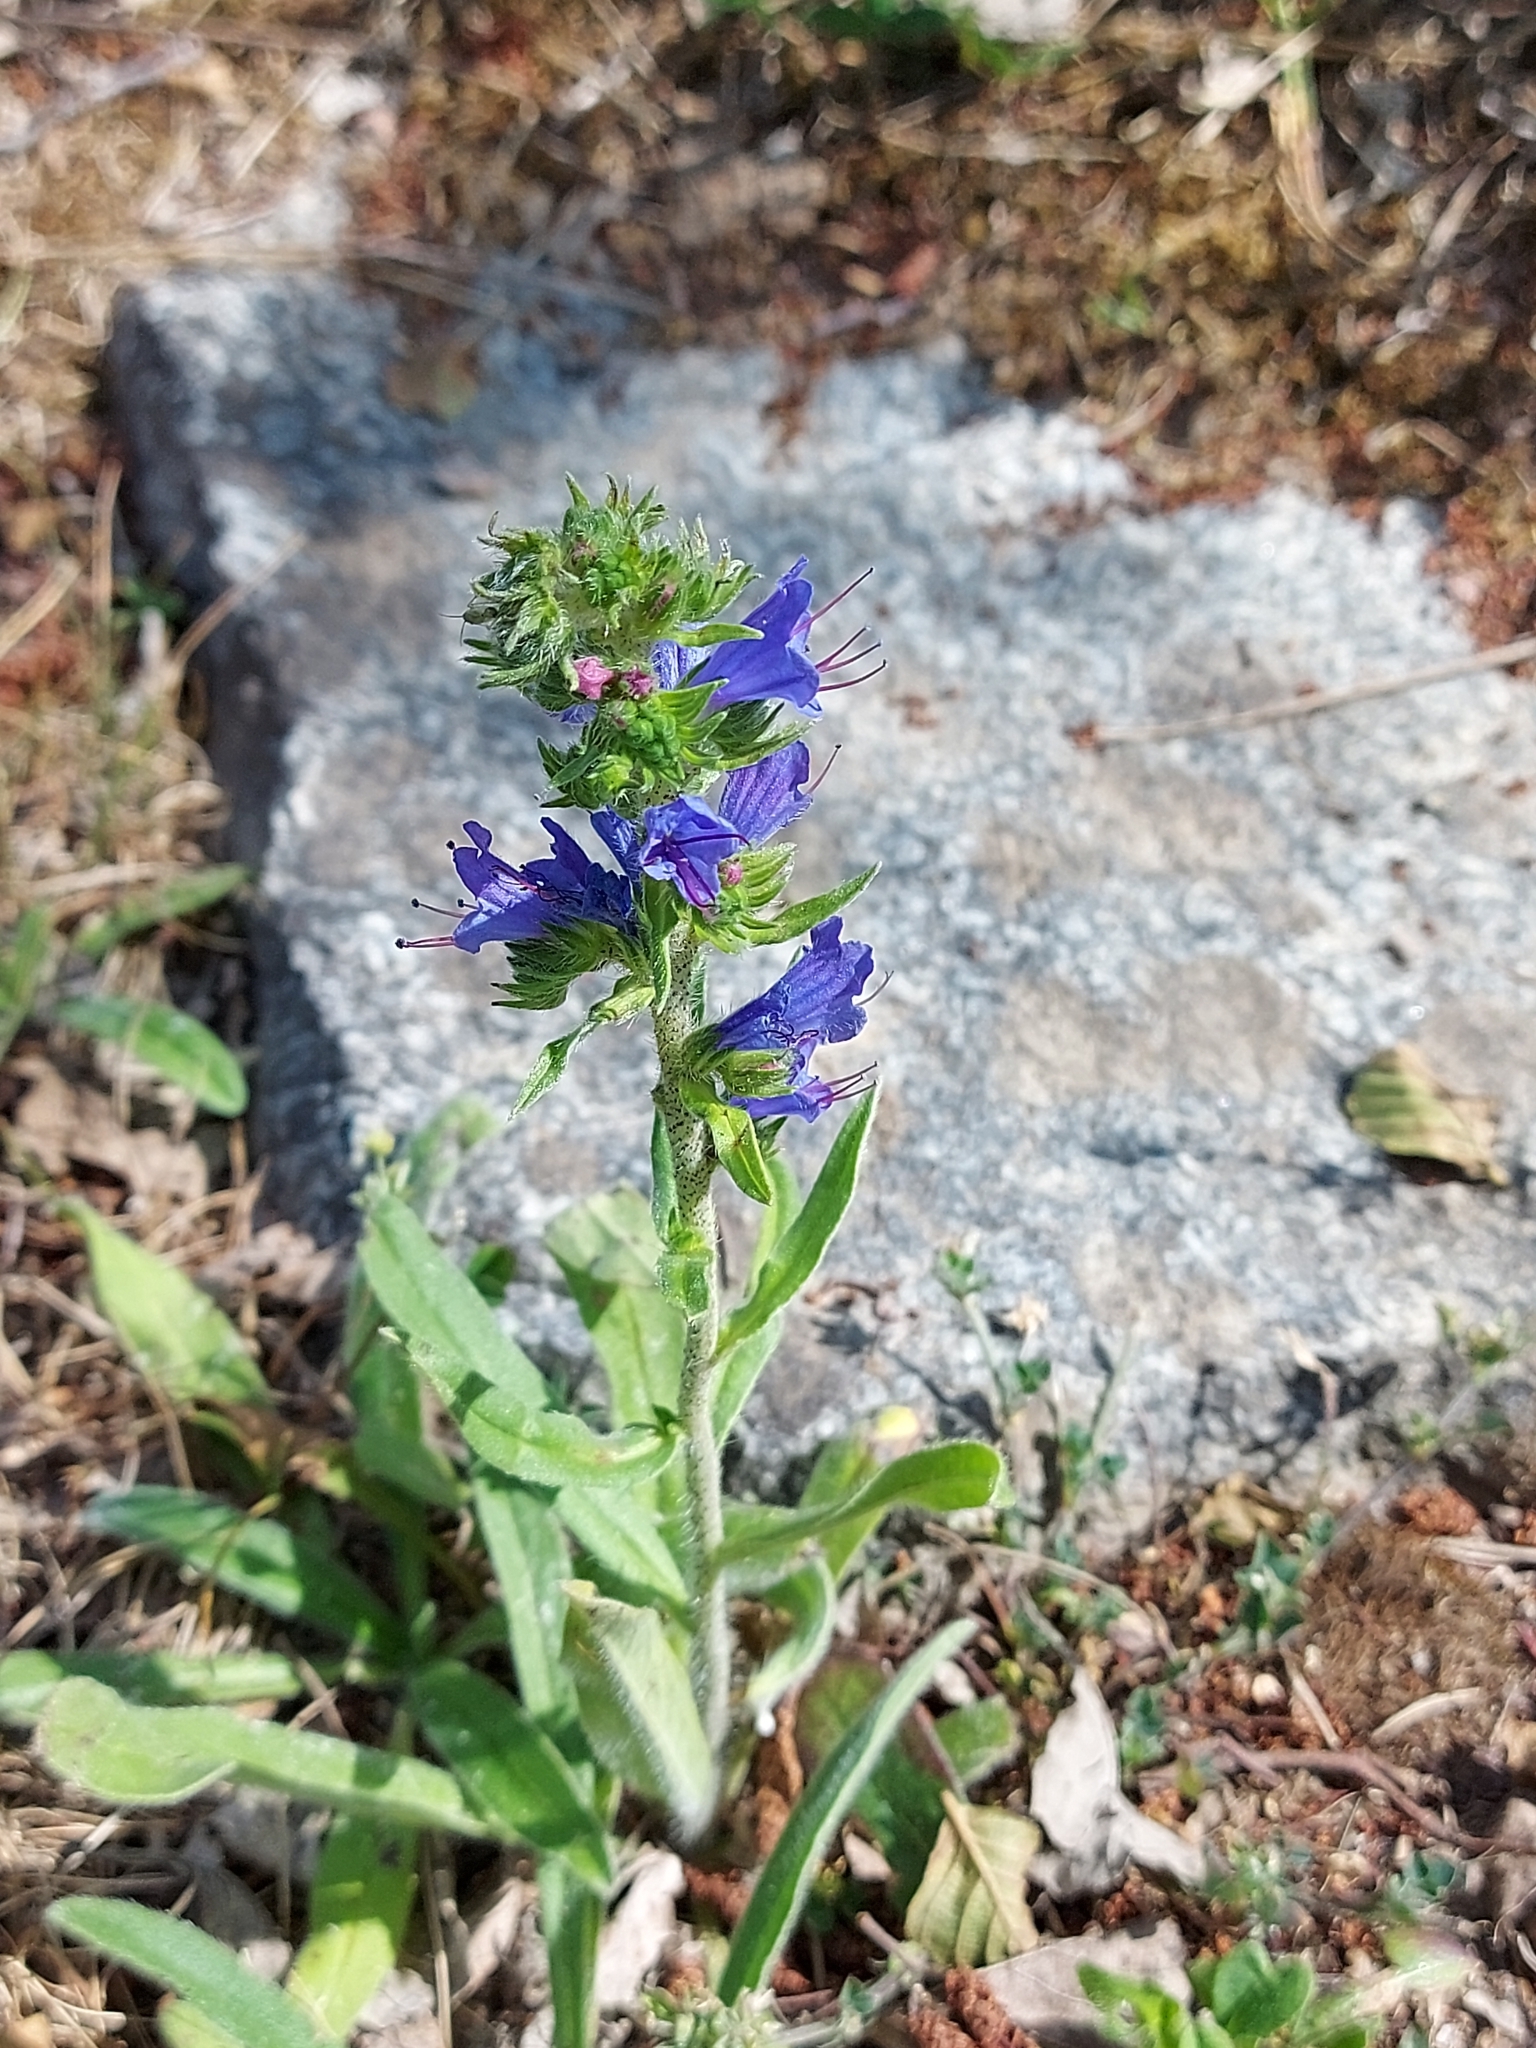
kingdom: Plantae
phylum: Tracheophyta
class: Magnoliopsida
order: Boraginales
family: Boraginaceae
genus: Echium
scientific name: Echium vulgare
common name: Common viper's bugloss
